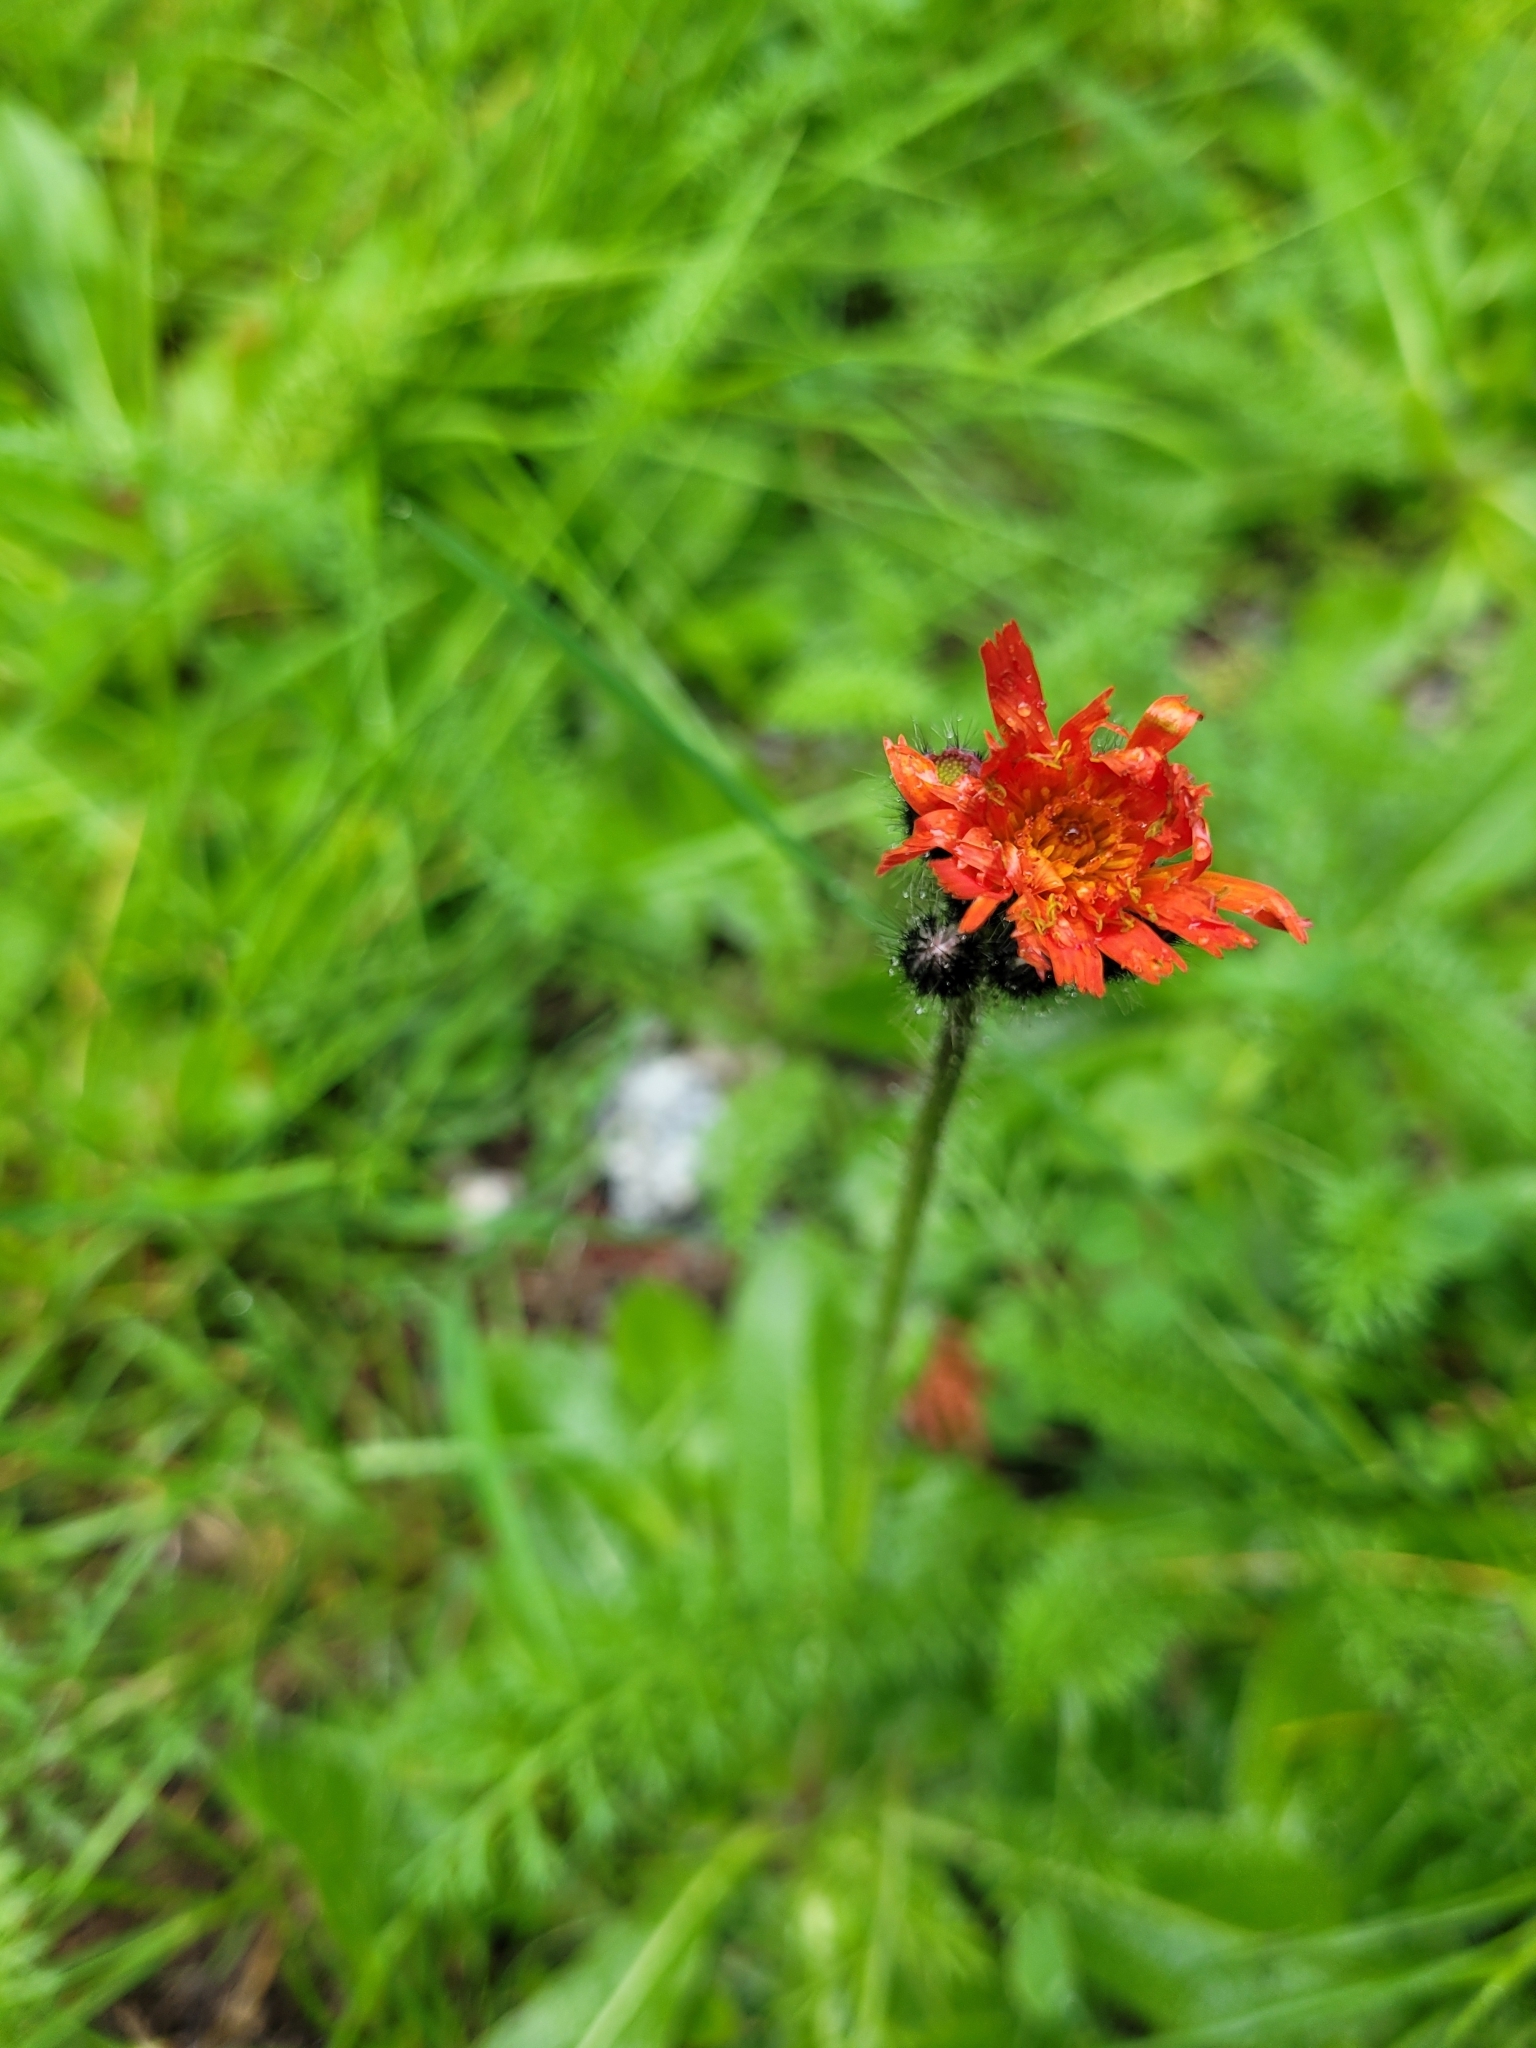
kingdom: Plantae
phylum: Tracheophyta
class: Magnoliopsida
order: Asterales
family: Asteraceae
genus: Pilosella
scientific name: Pilosella aurantiaca
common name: Fox-and-cubs
